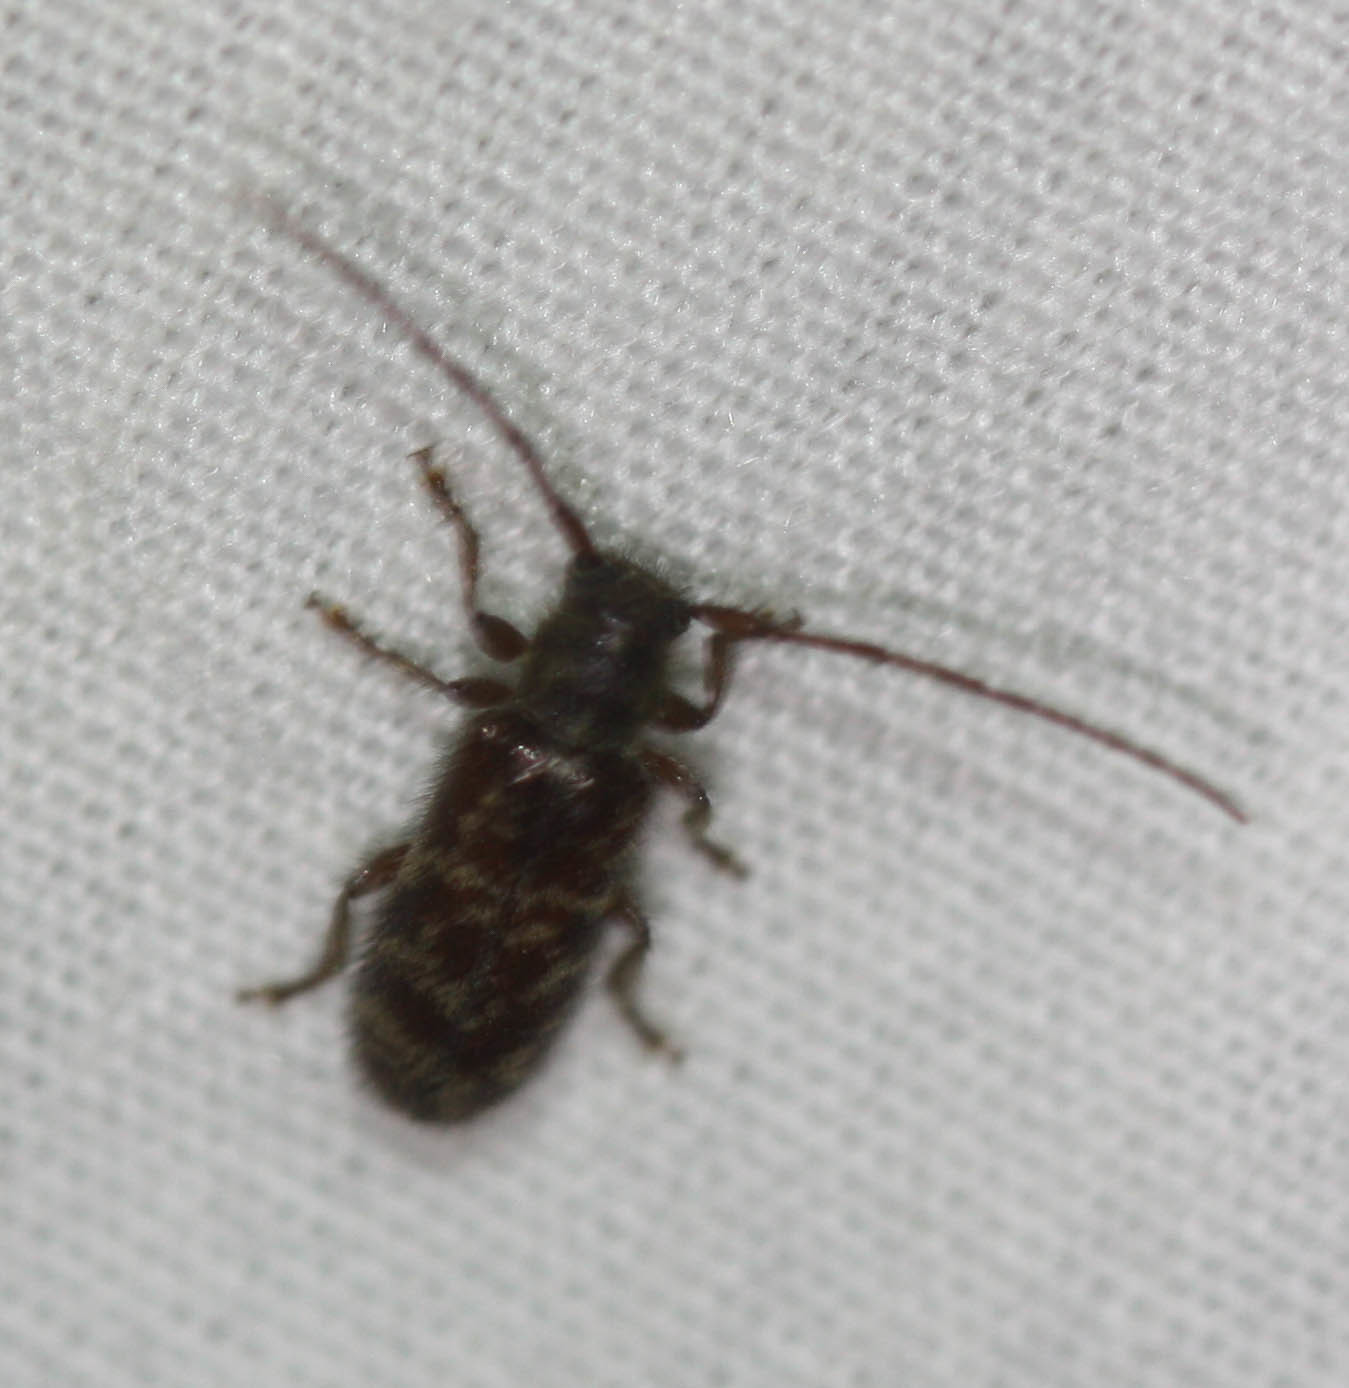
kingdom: Animalia
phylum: Arthropoda
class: Insecta
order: Coleoptera
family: Cerambycidae
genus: Eupogonius
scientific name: Eupogonius tomentosus
